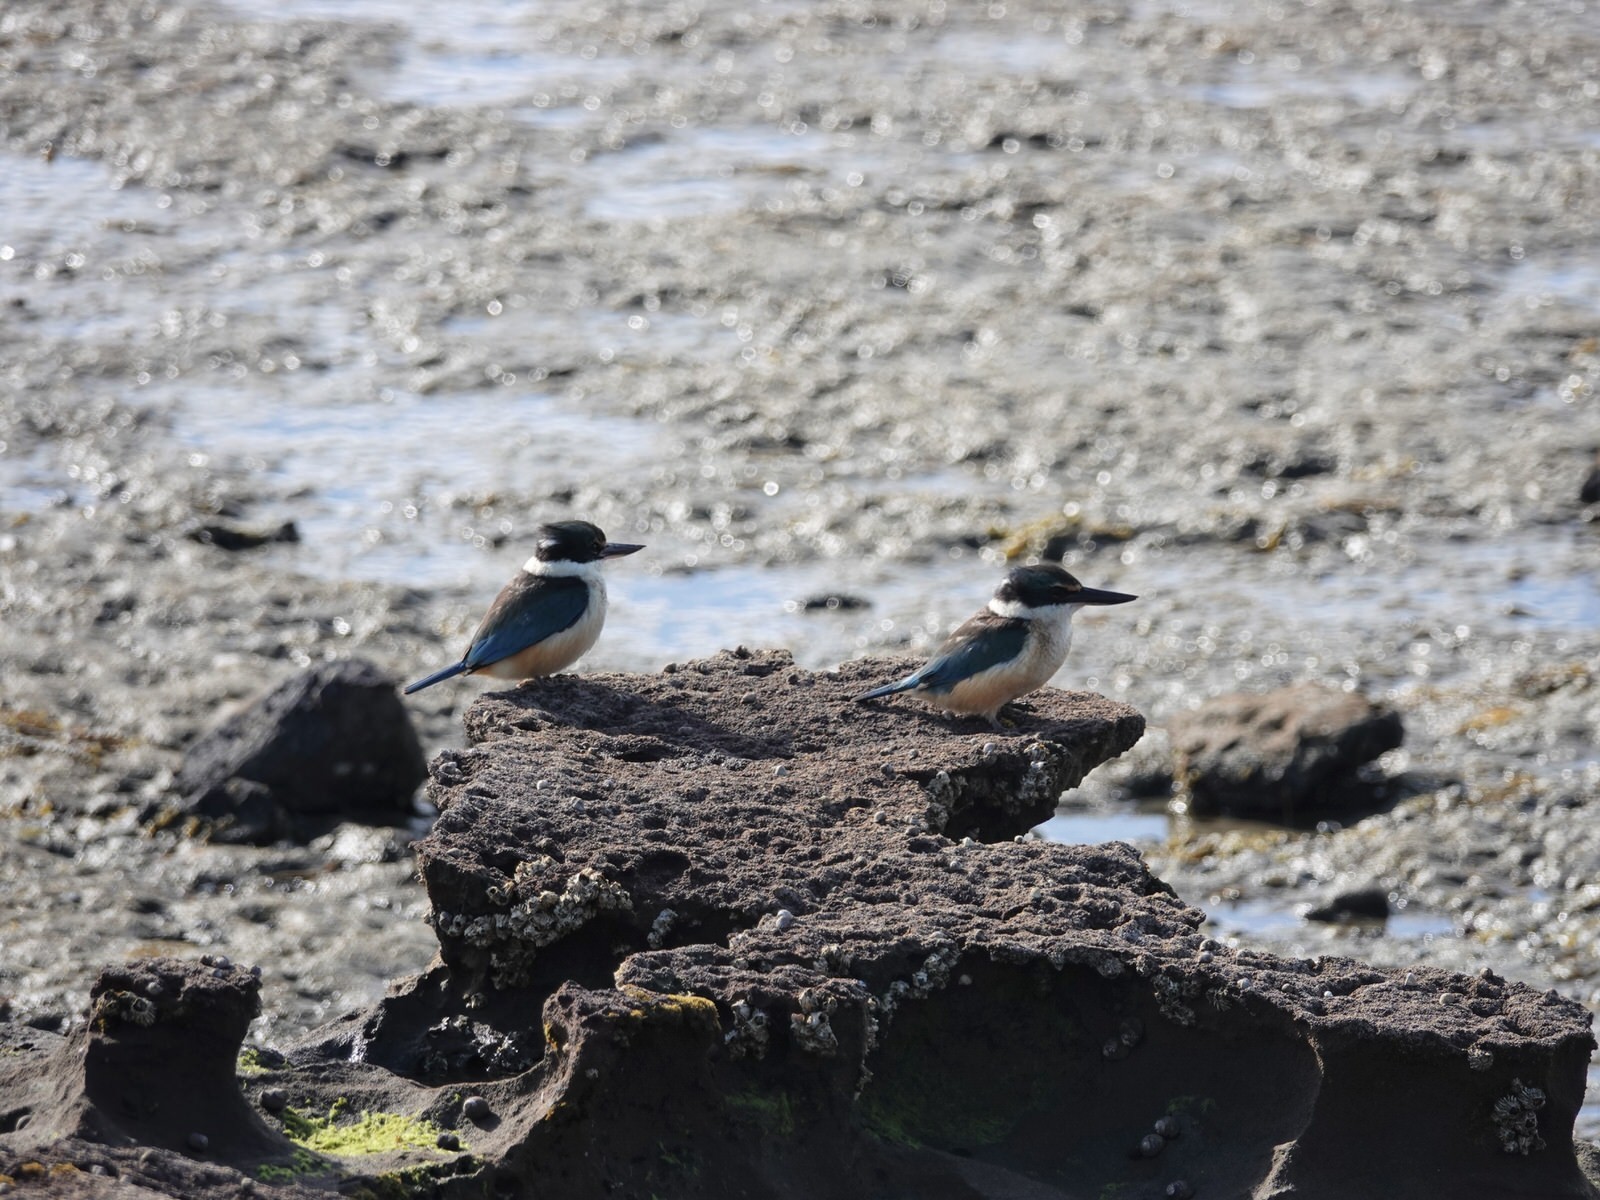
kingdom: Animalia
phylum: Chordata
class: Aves
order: Coraciiformes
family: Alcedinidae
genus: Todiramphus
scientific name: Todiramphus sanctus
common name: Sacred kingfisher
